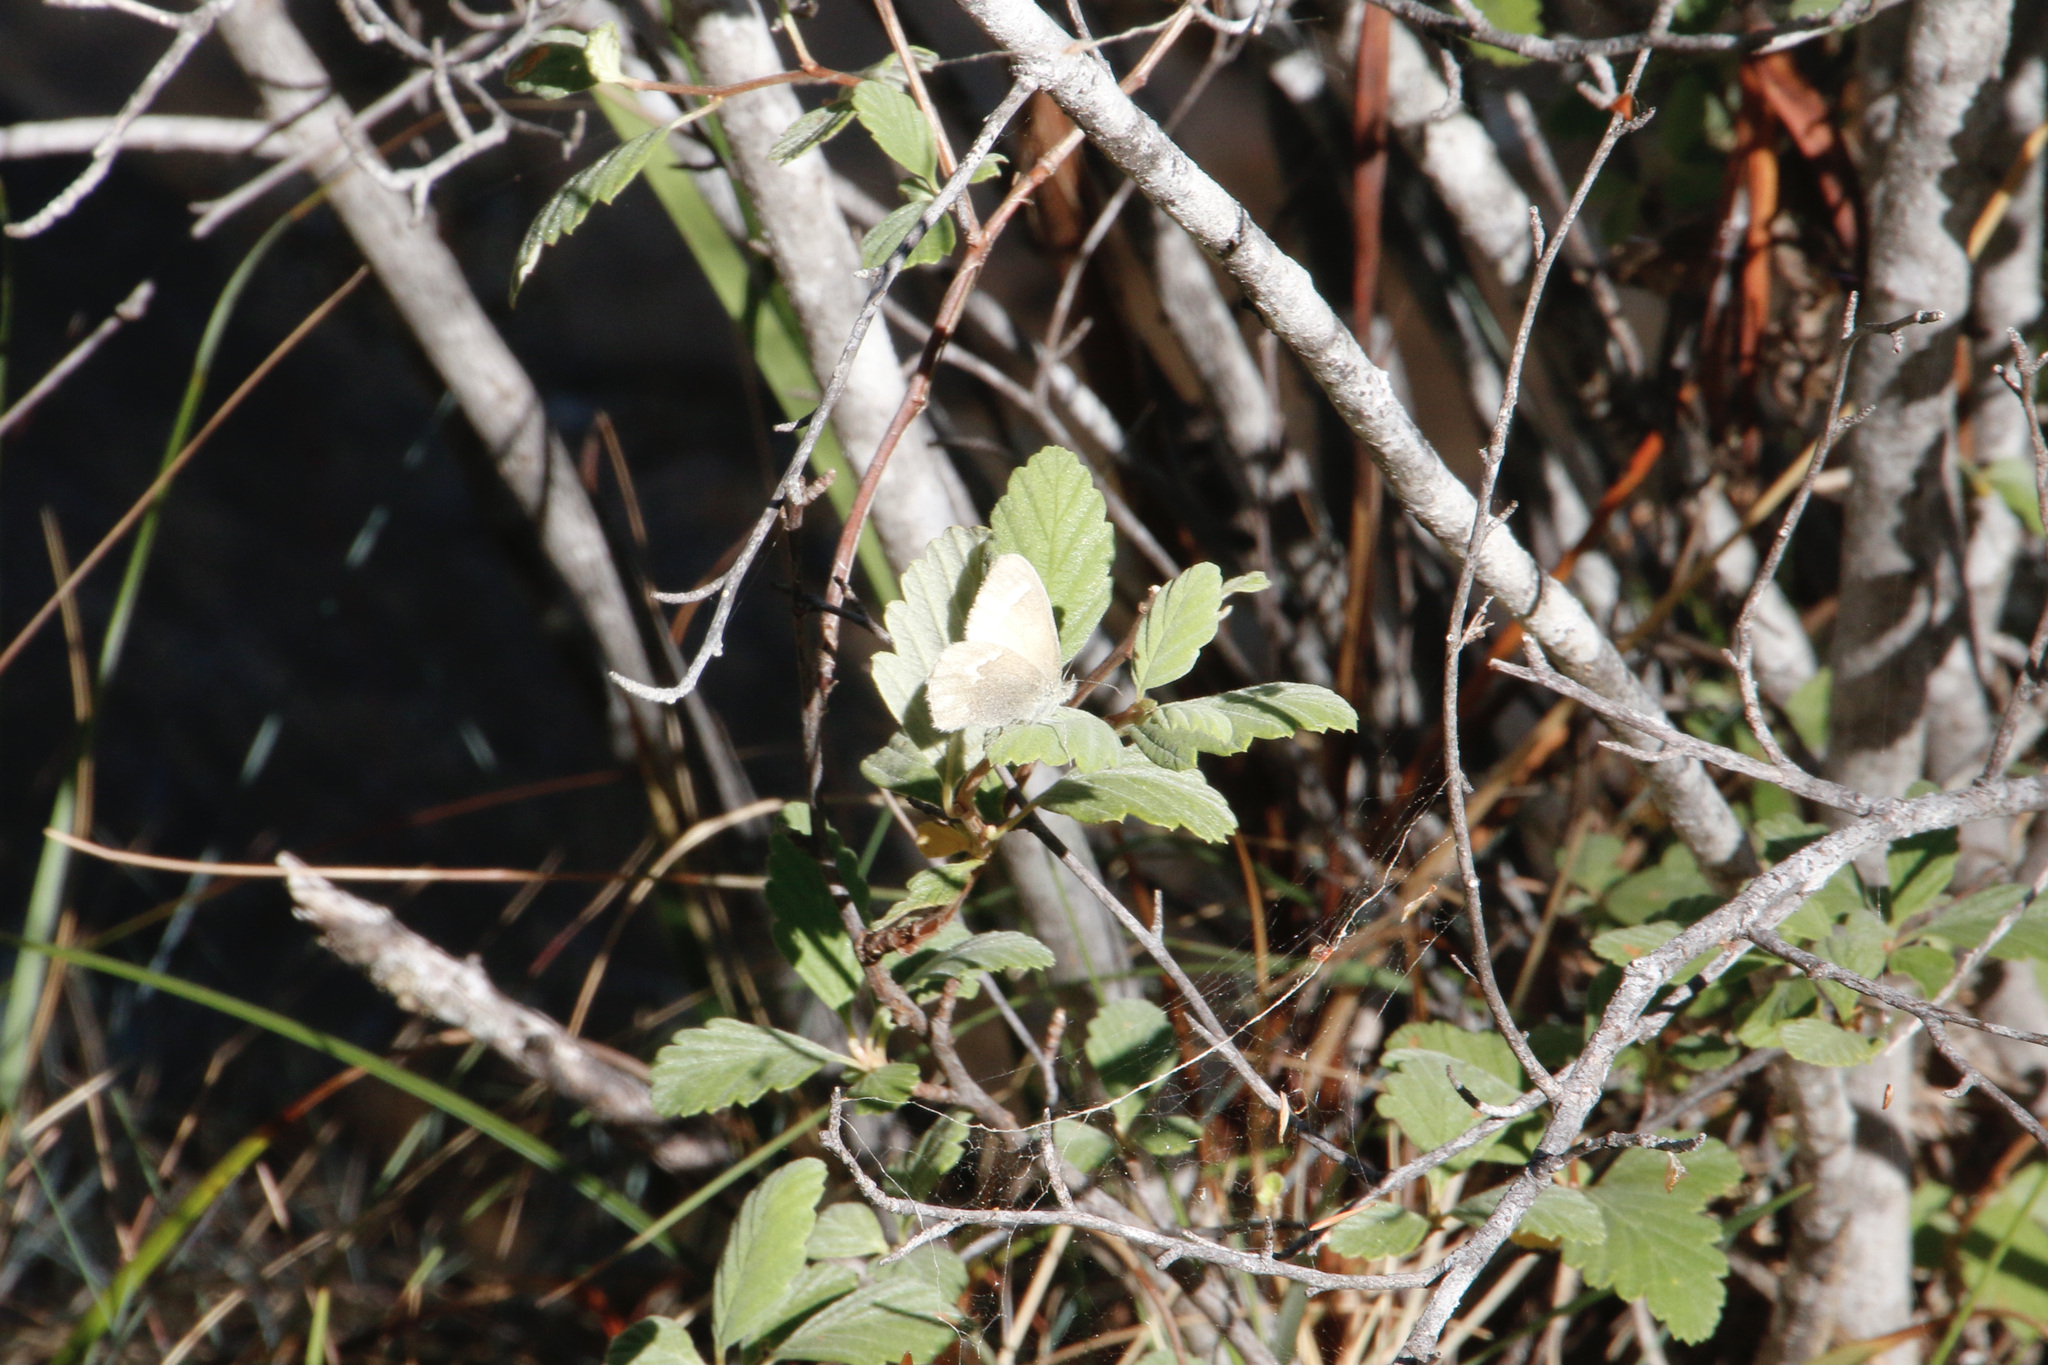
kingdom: Animalia
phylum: Arthropoda
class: Insecta
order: Lepidoptera
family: Nymphalidae
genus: Coenonympha
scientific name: Coenonympha california
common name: Common ringlet
